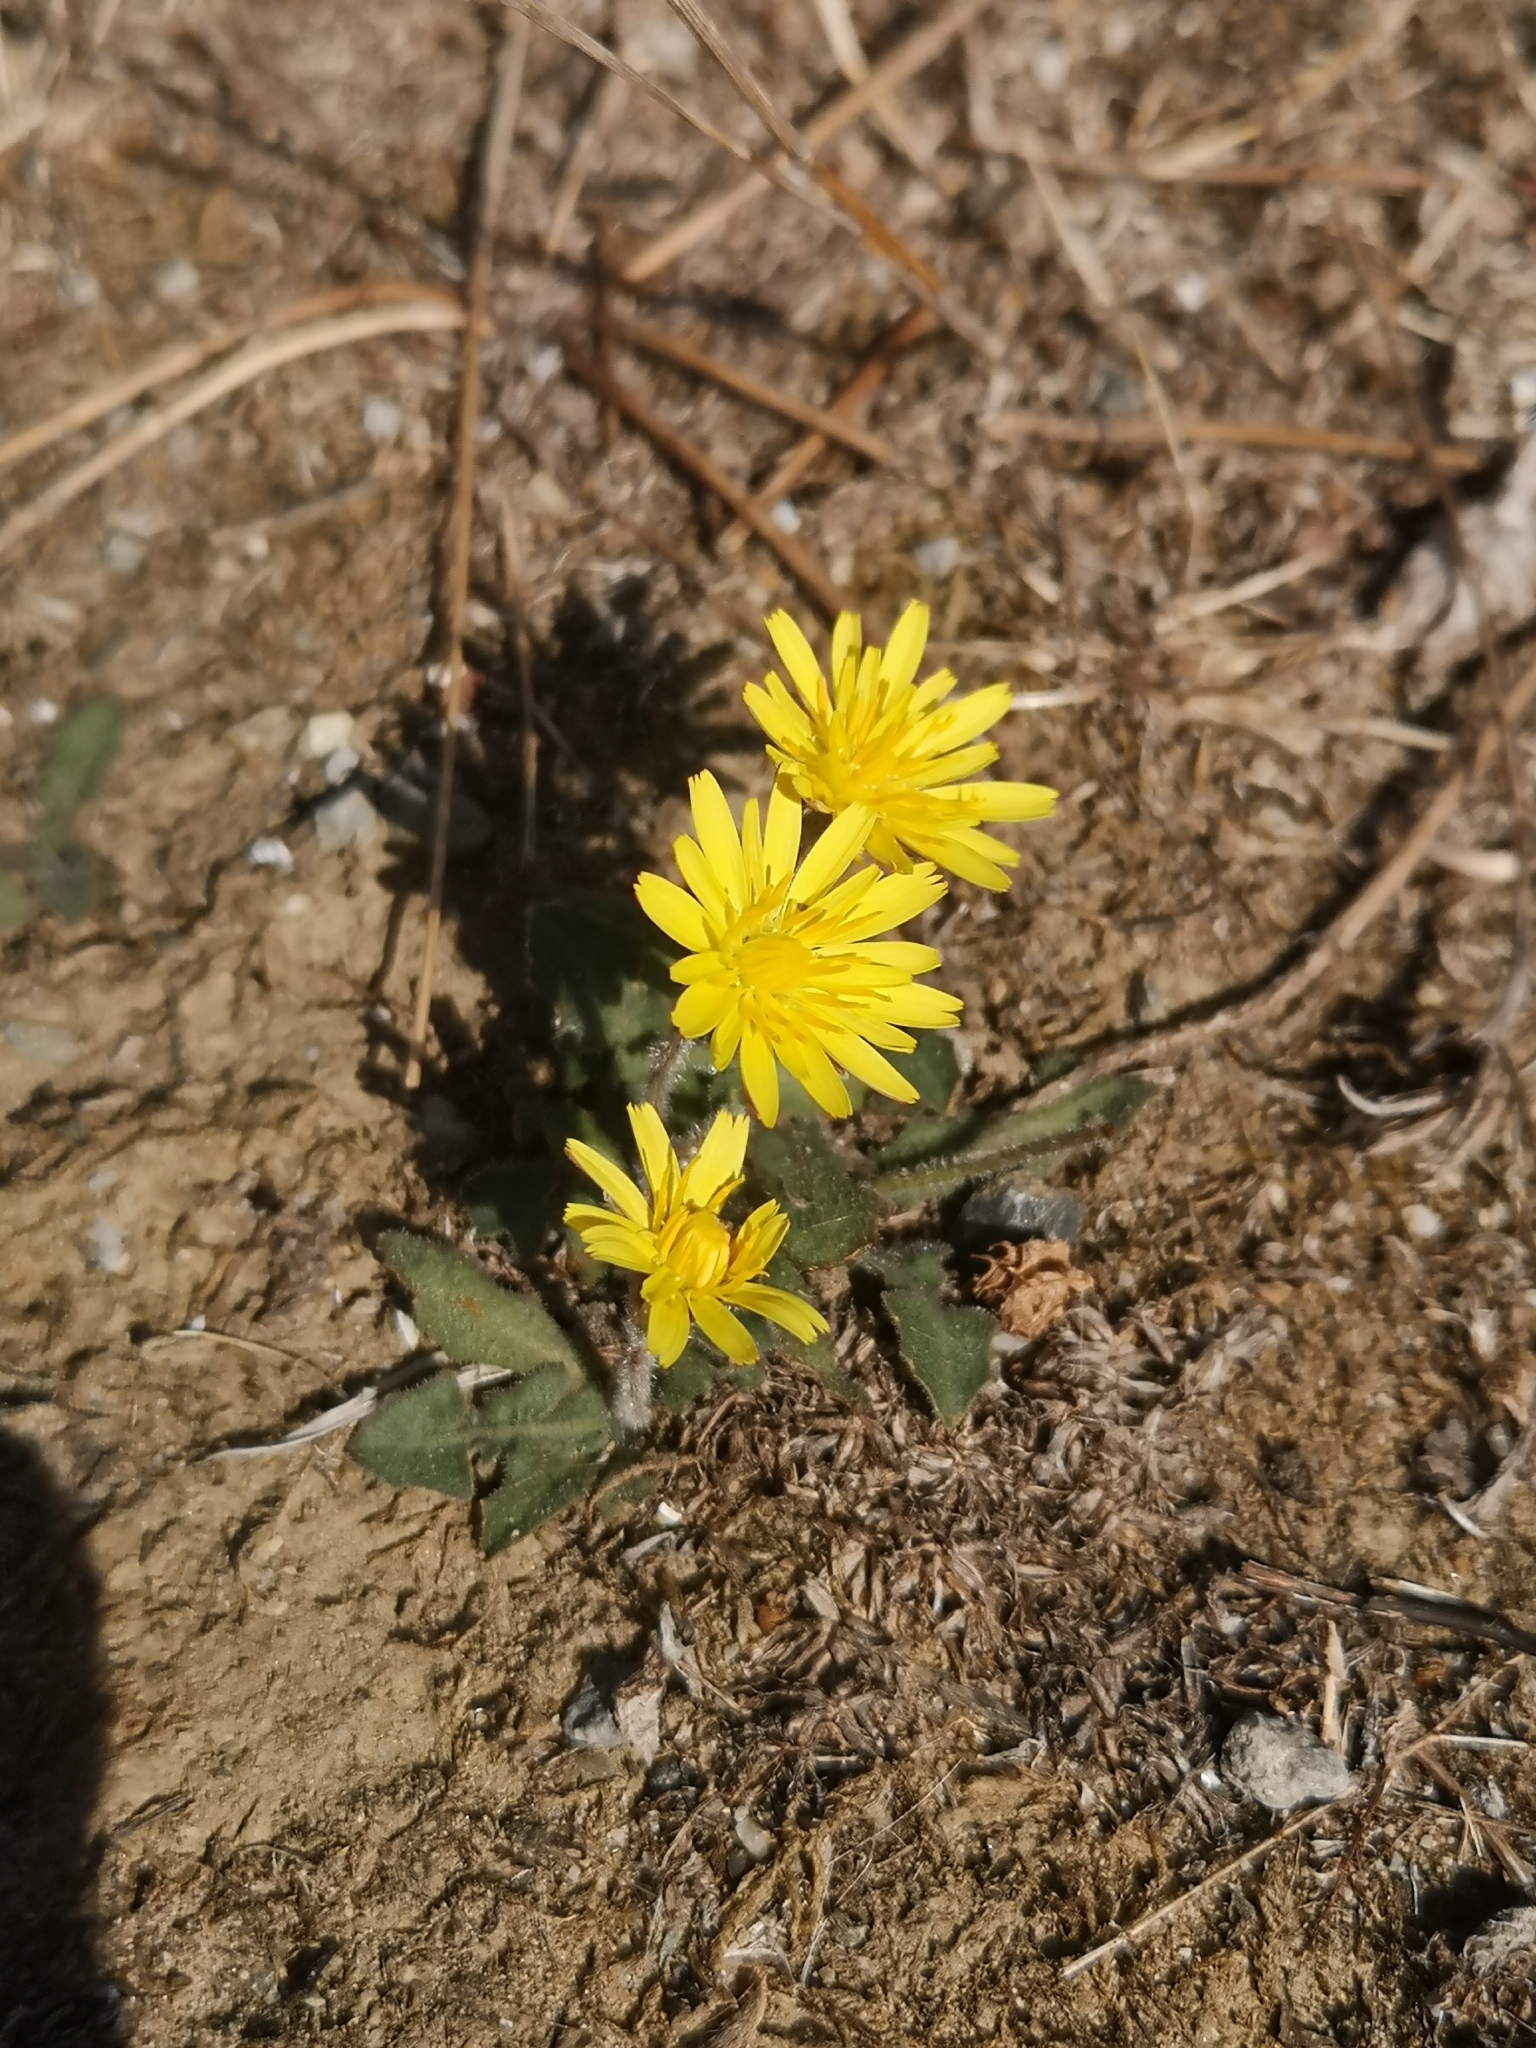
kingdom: Plantae
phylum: Tracheophyta
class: Magnoliopsida
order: Asterales
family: Asteraceae
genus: Leontodon
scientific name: Leontodon tuberosus
